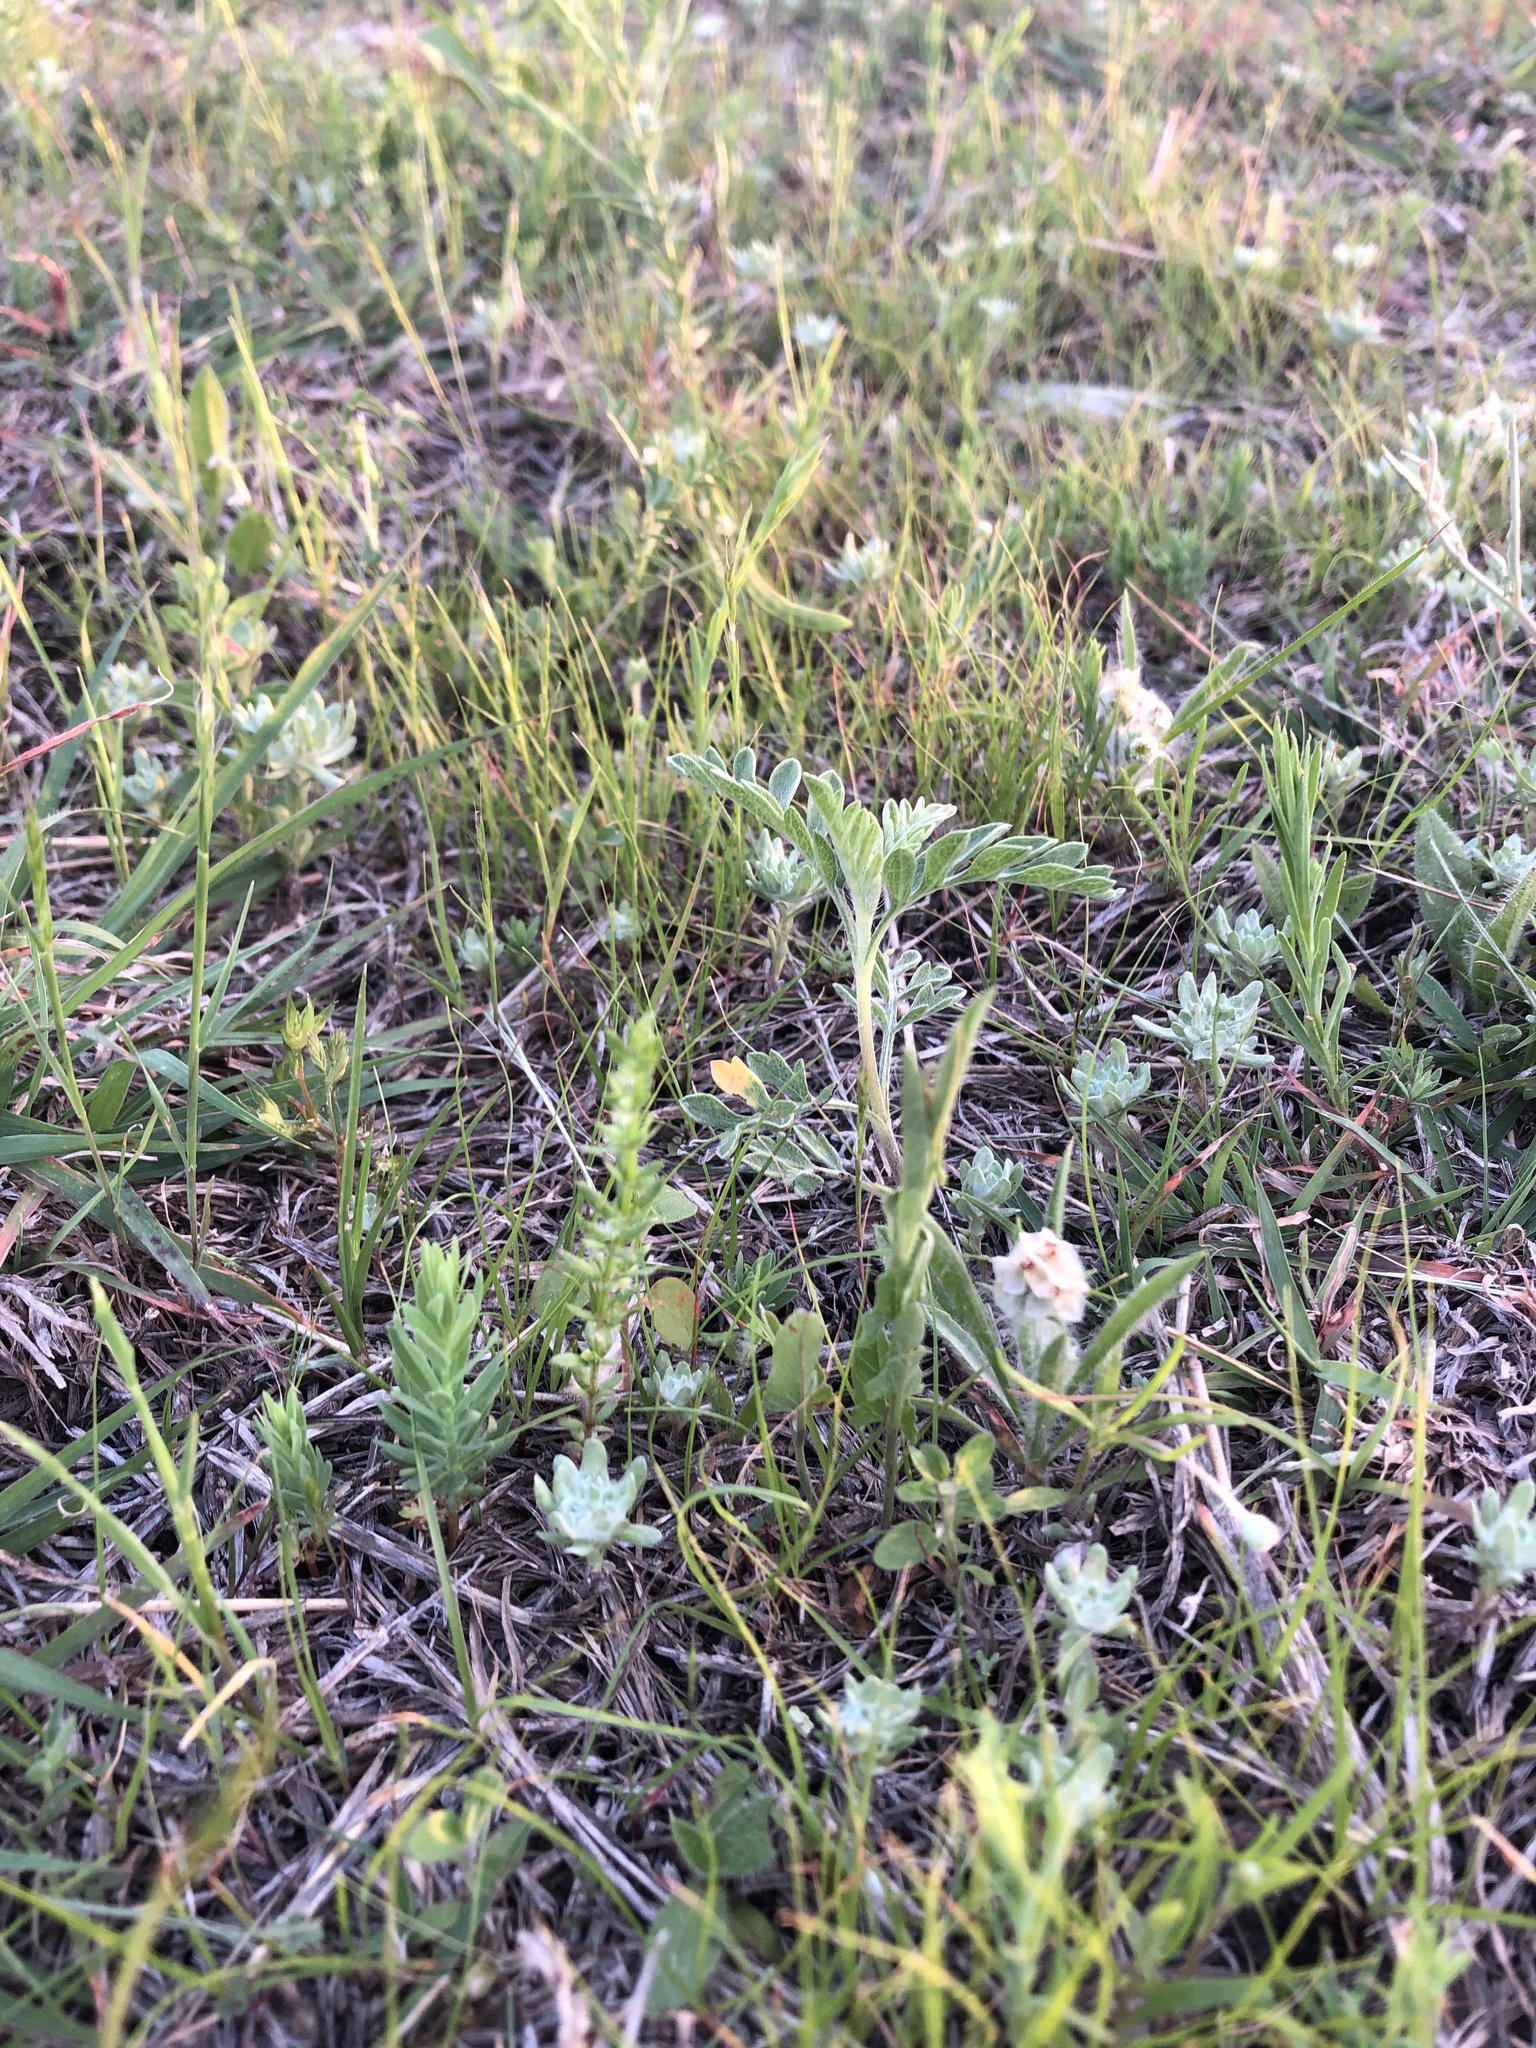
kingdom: Plantae
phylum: Tracheophyta
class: Magnoliopsida
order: Gentianales
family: Rubiaceae
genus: Galium
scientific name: Galium virgatum
